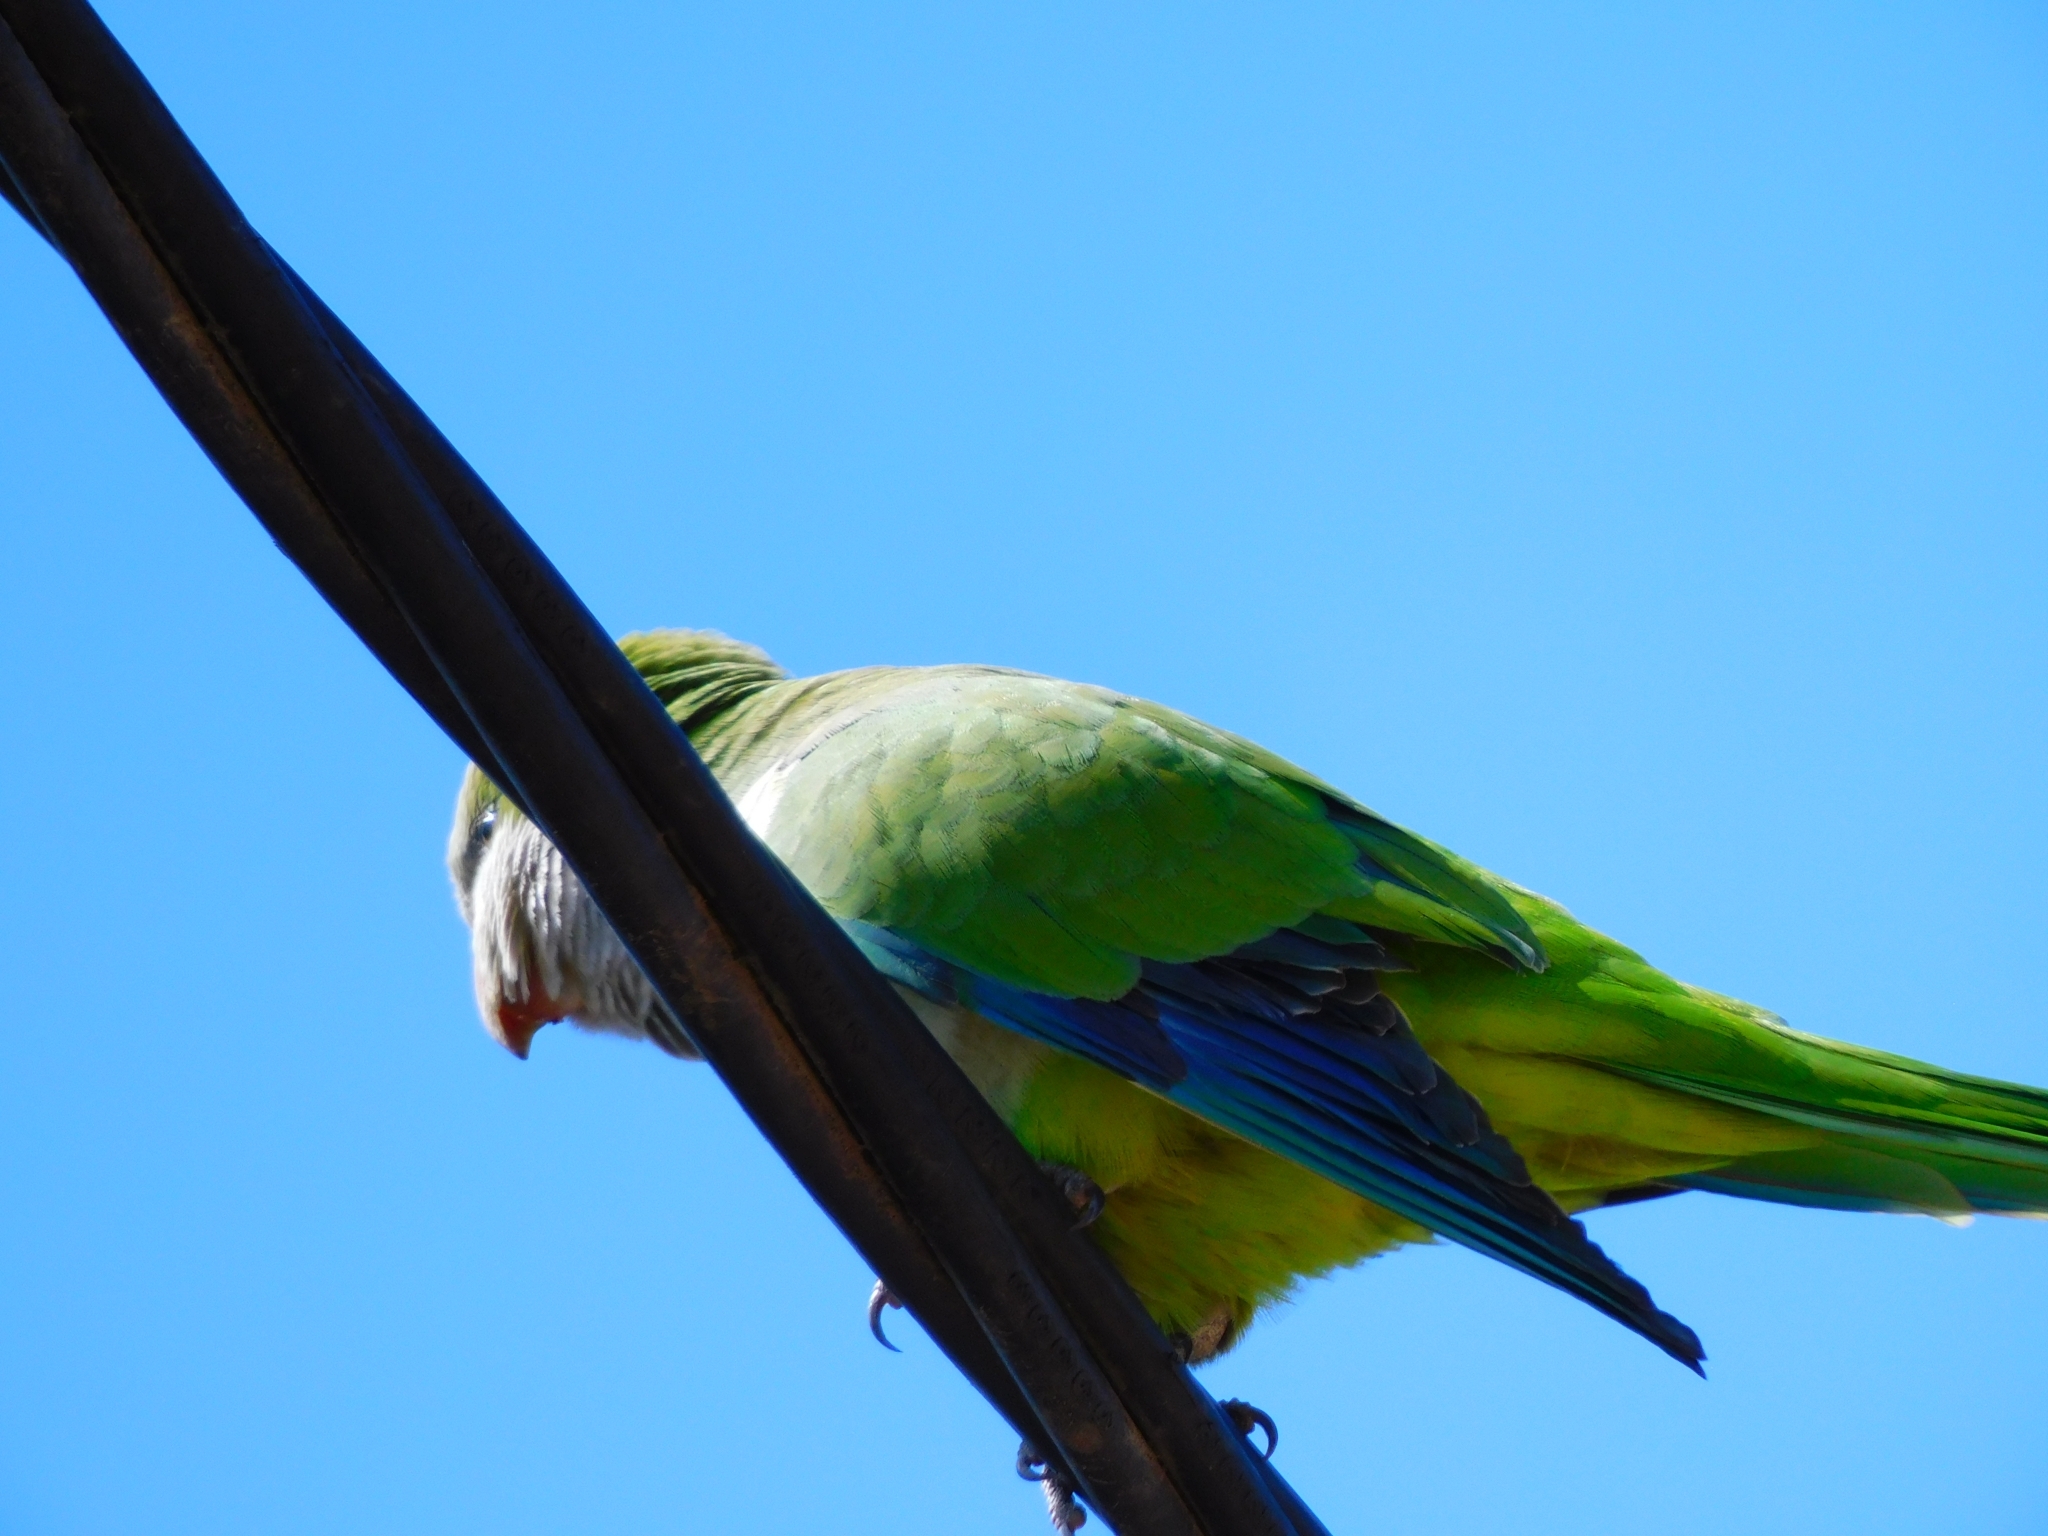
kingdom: Animalia
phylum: Chordata
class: Aves
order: Psittaciformes
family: Psittacidae
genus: Myiopsitta
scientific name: Myiopsitta monachus
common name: Monk parakeet
